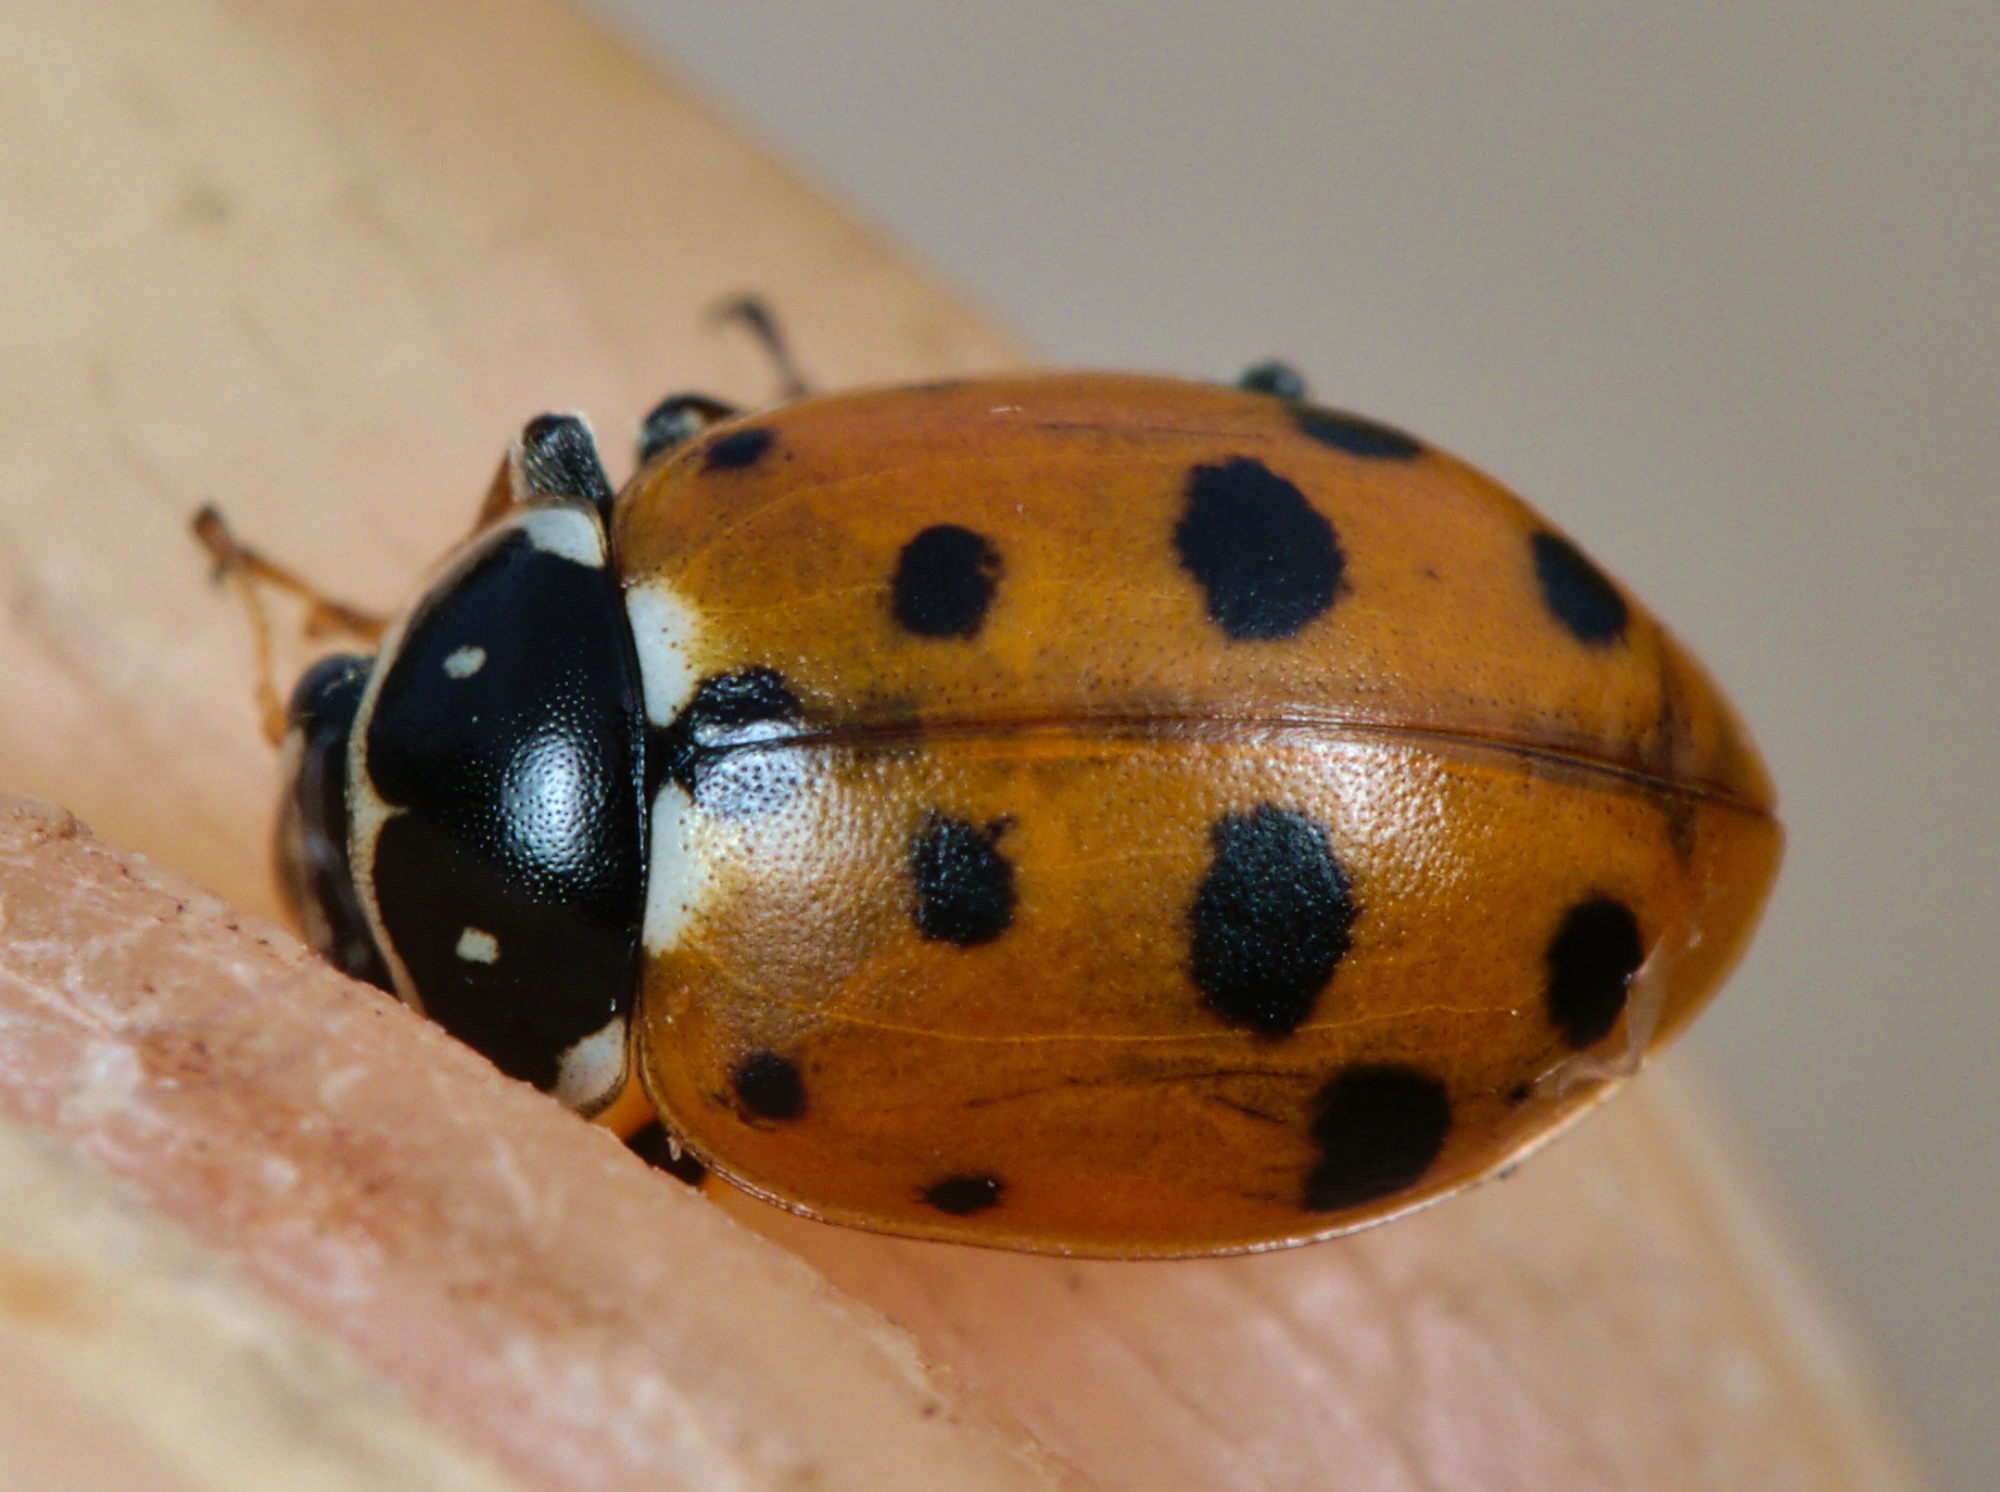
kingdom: Animalia
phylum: Arthropoda
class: Insecta
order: Coleoptera
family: Coccinellidae
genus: Hippodamia
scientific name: Hippodamia variegata
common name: Ladybird beetle
